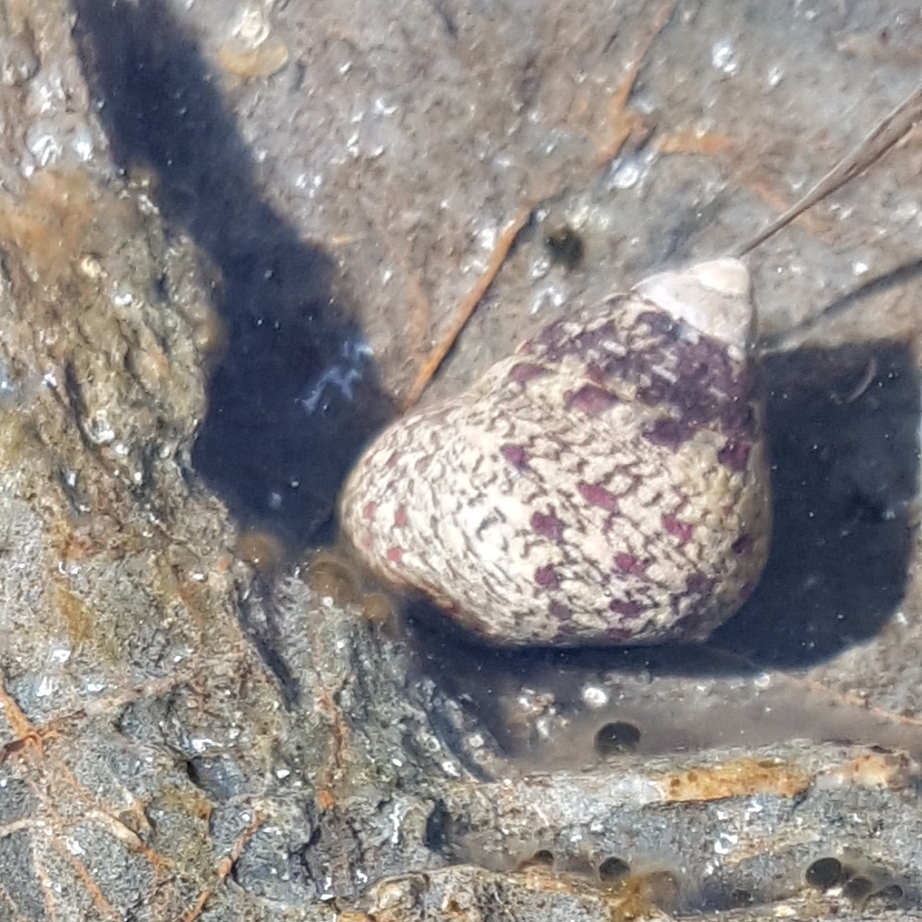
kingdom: Animalia
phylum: Mollusca
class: Gastropoda
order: Trochida
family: Trochidae
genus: Phorcus
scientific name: Phorcus articulatus
